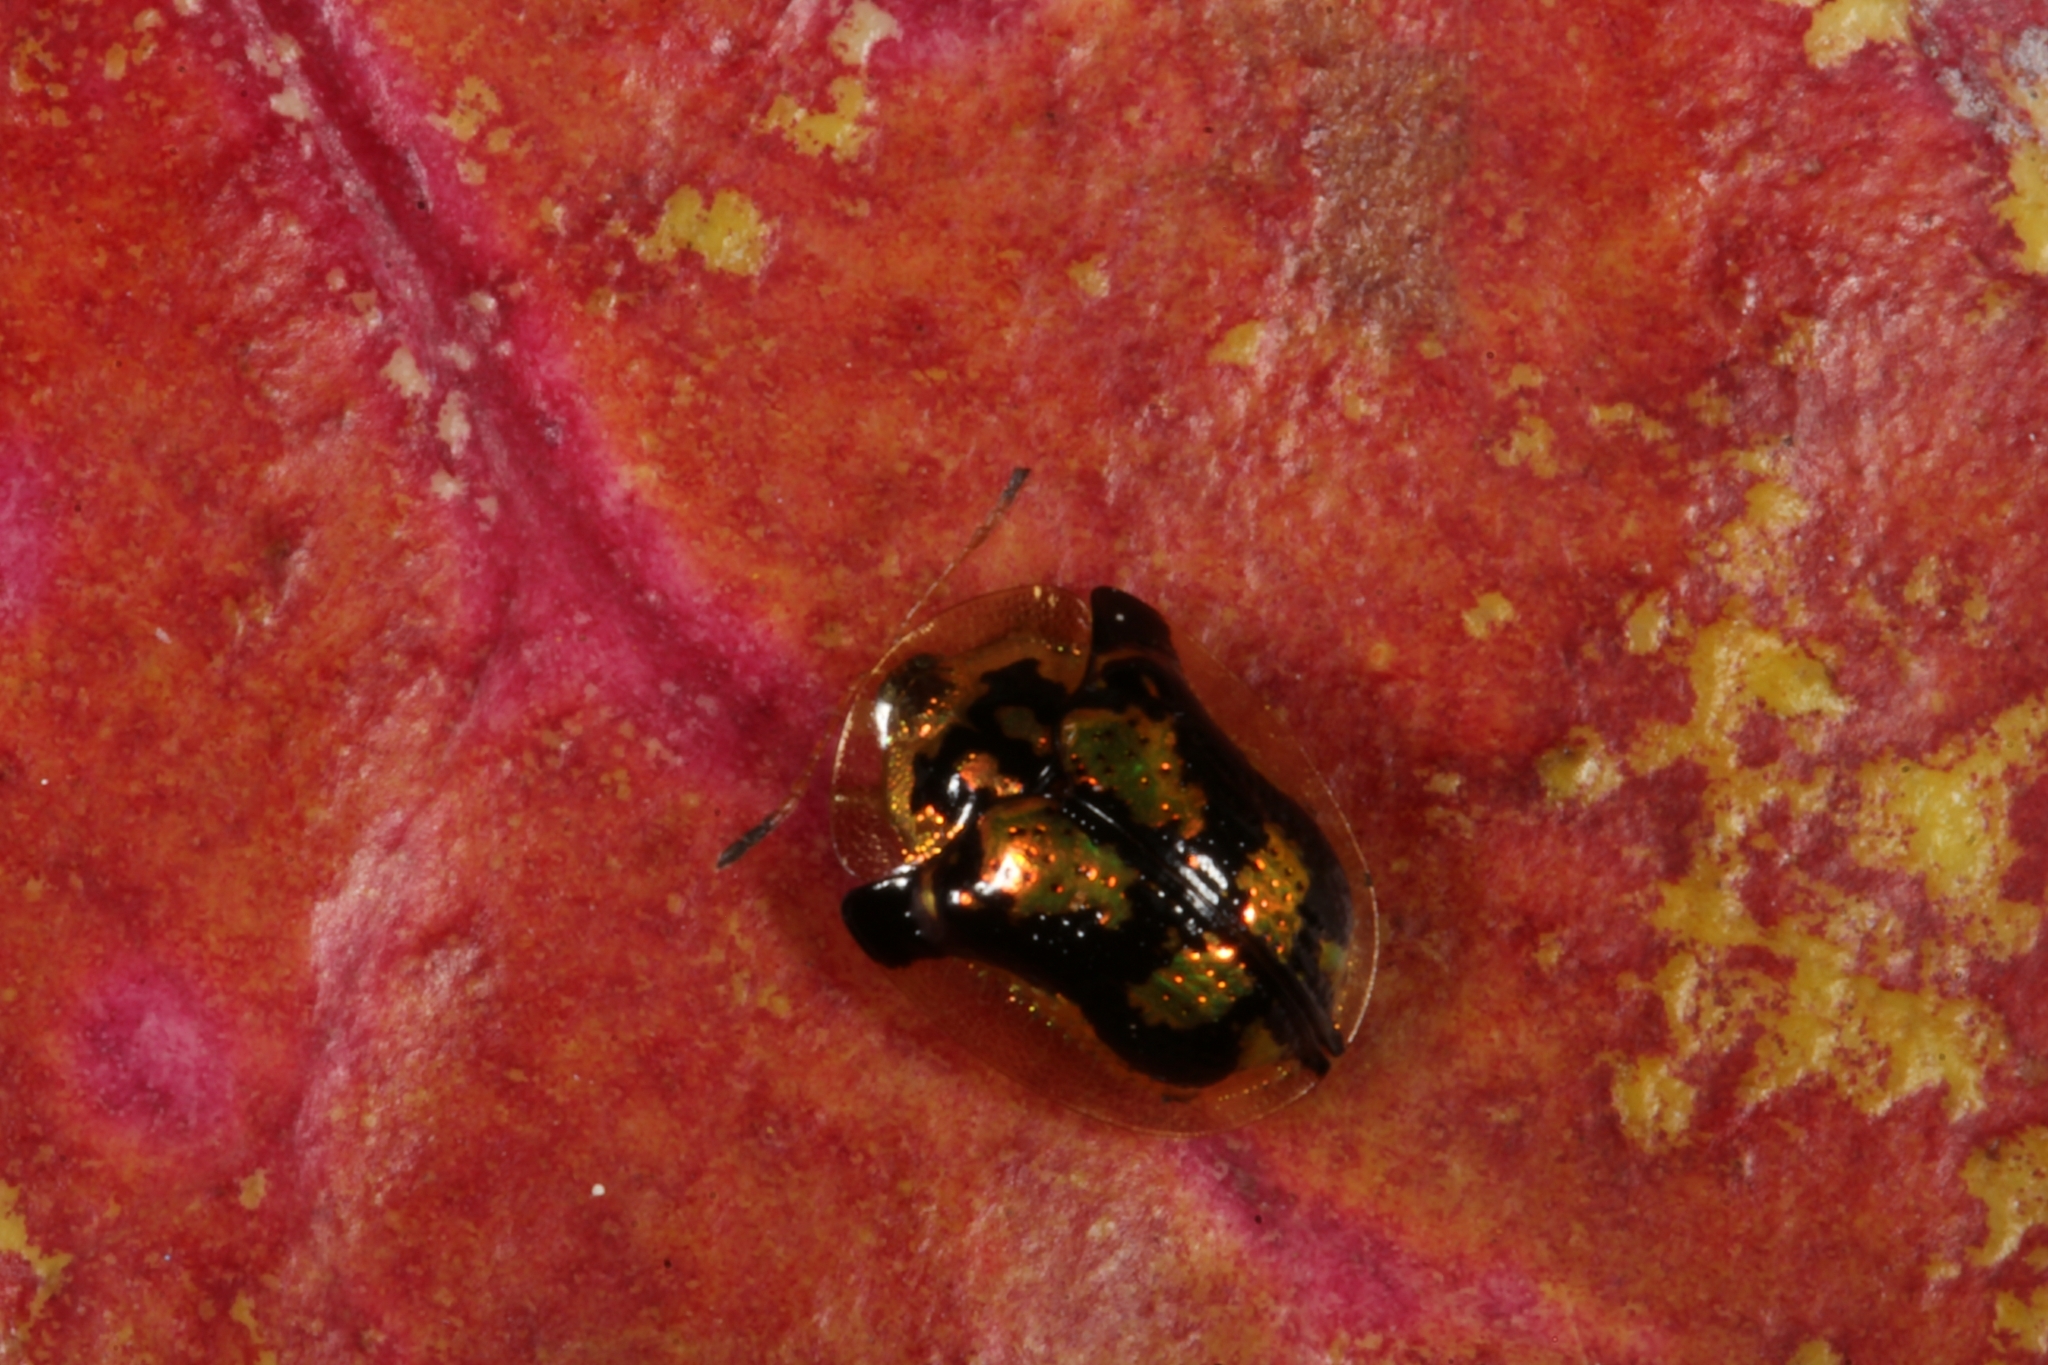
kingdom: Animalia
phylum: Arthropoda
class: Insecta
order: Coleoptera
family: Chrysomelidae
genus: Deloyala
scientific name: Deloyala fuliginosa
